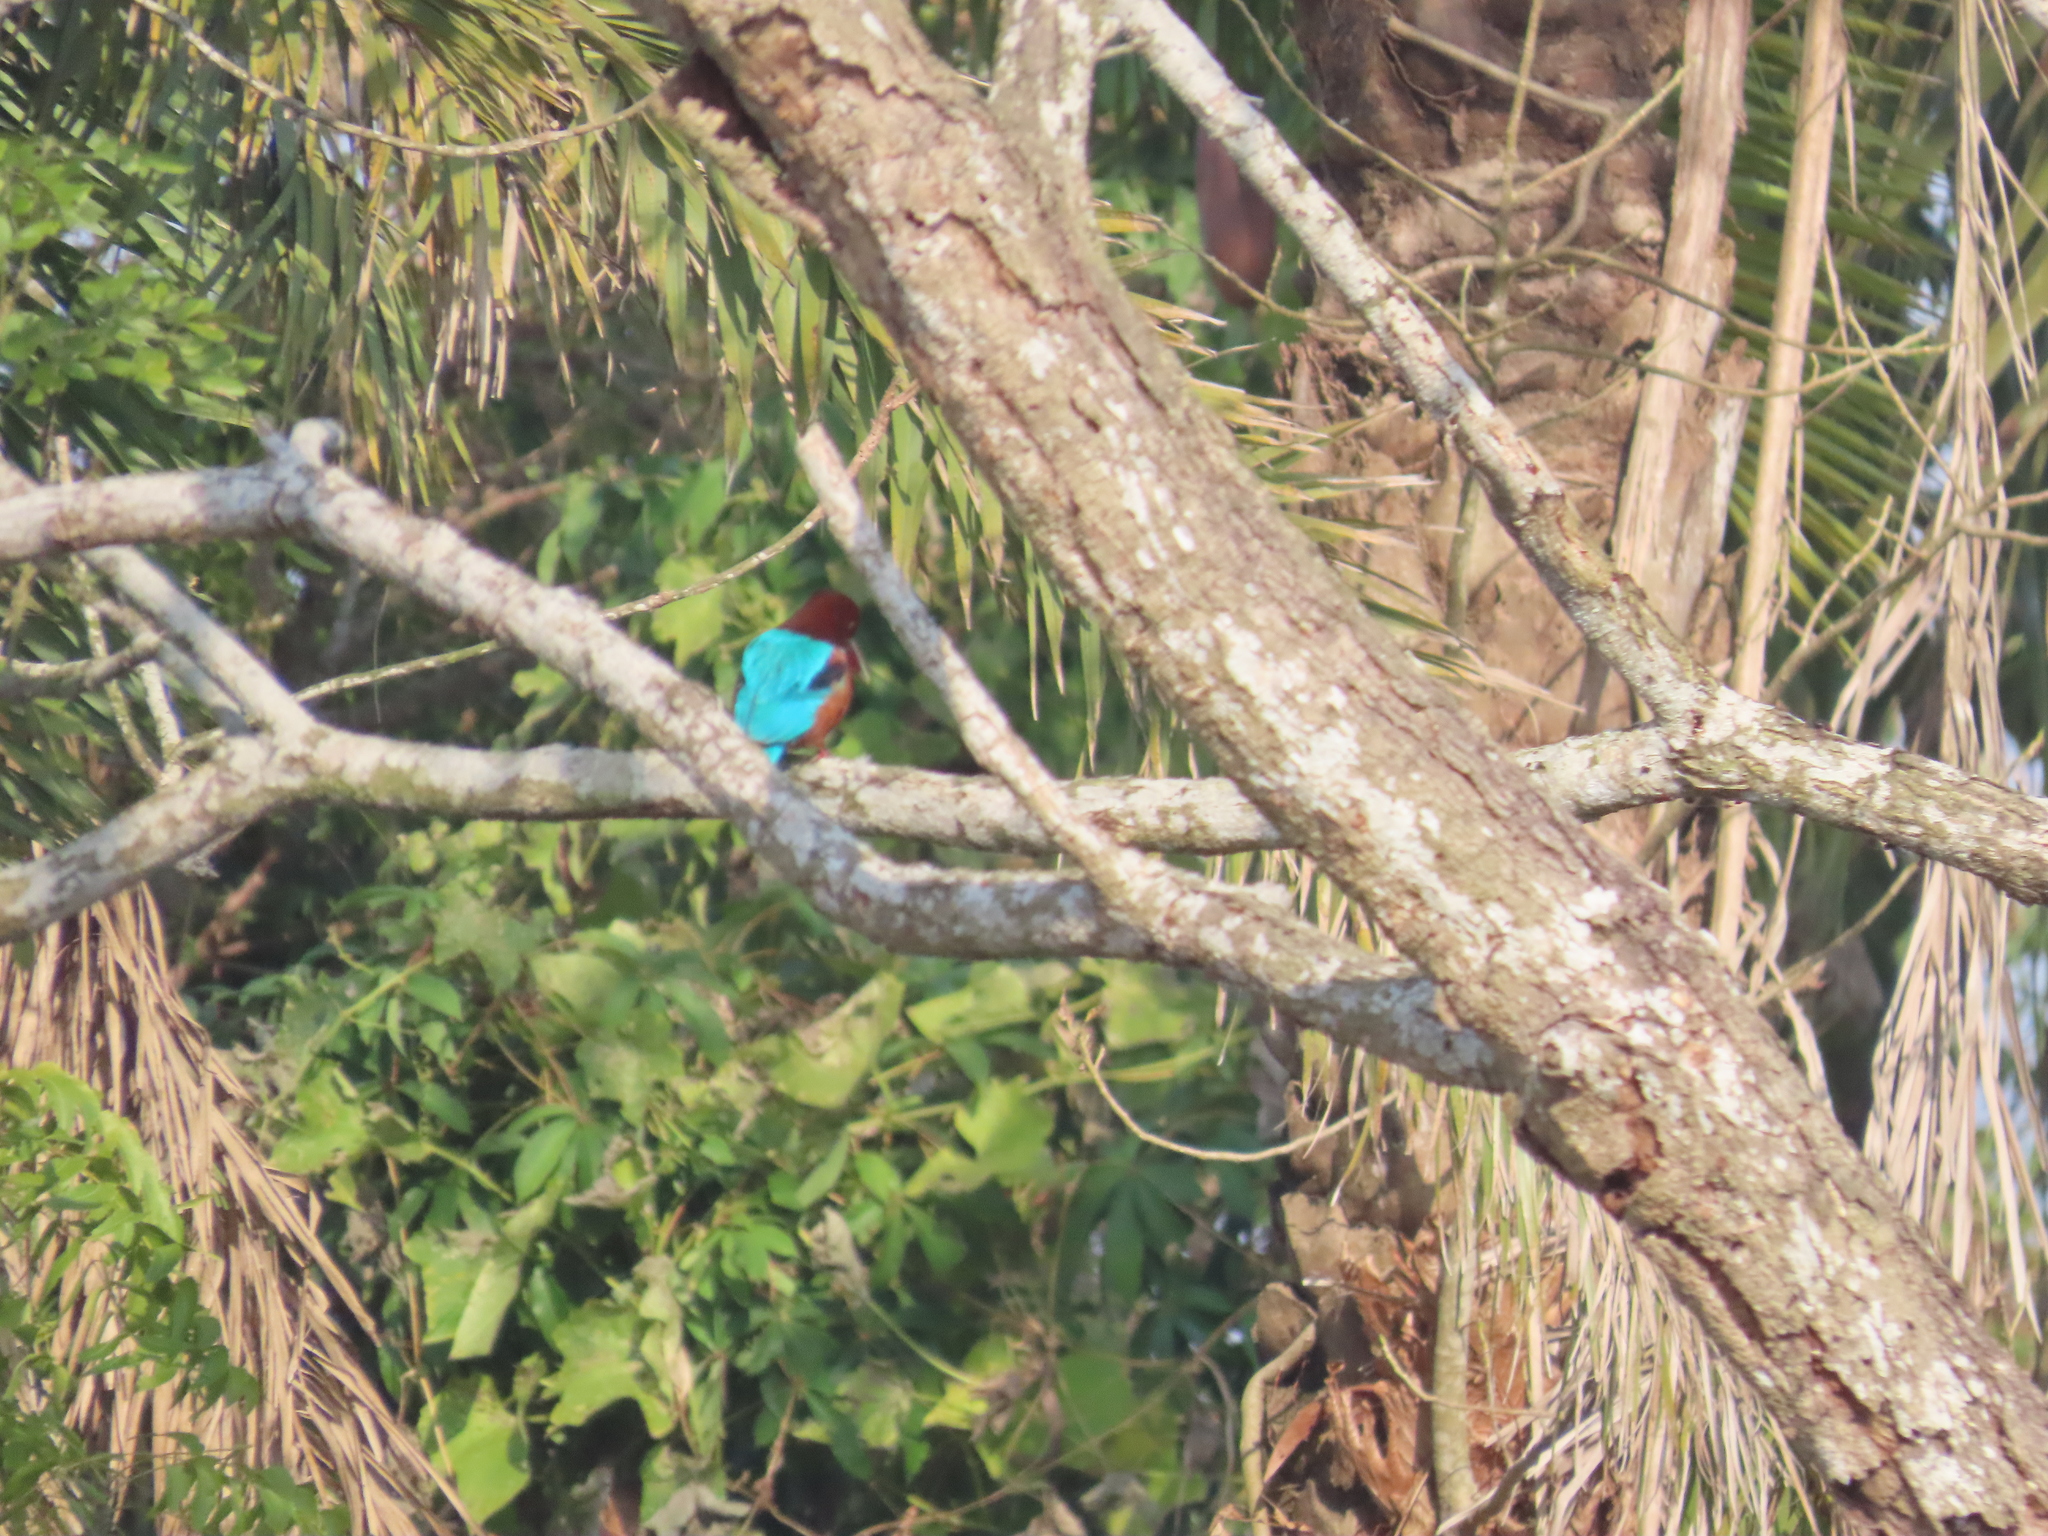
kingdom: Animalia
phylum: Chordata
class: Aves
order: Coraciiformes
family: Alcedinidae
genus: Halcyon
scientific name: Halcyon smyrnensis
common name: White-throated kingfisher
